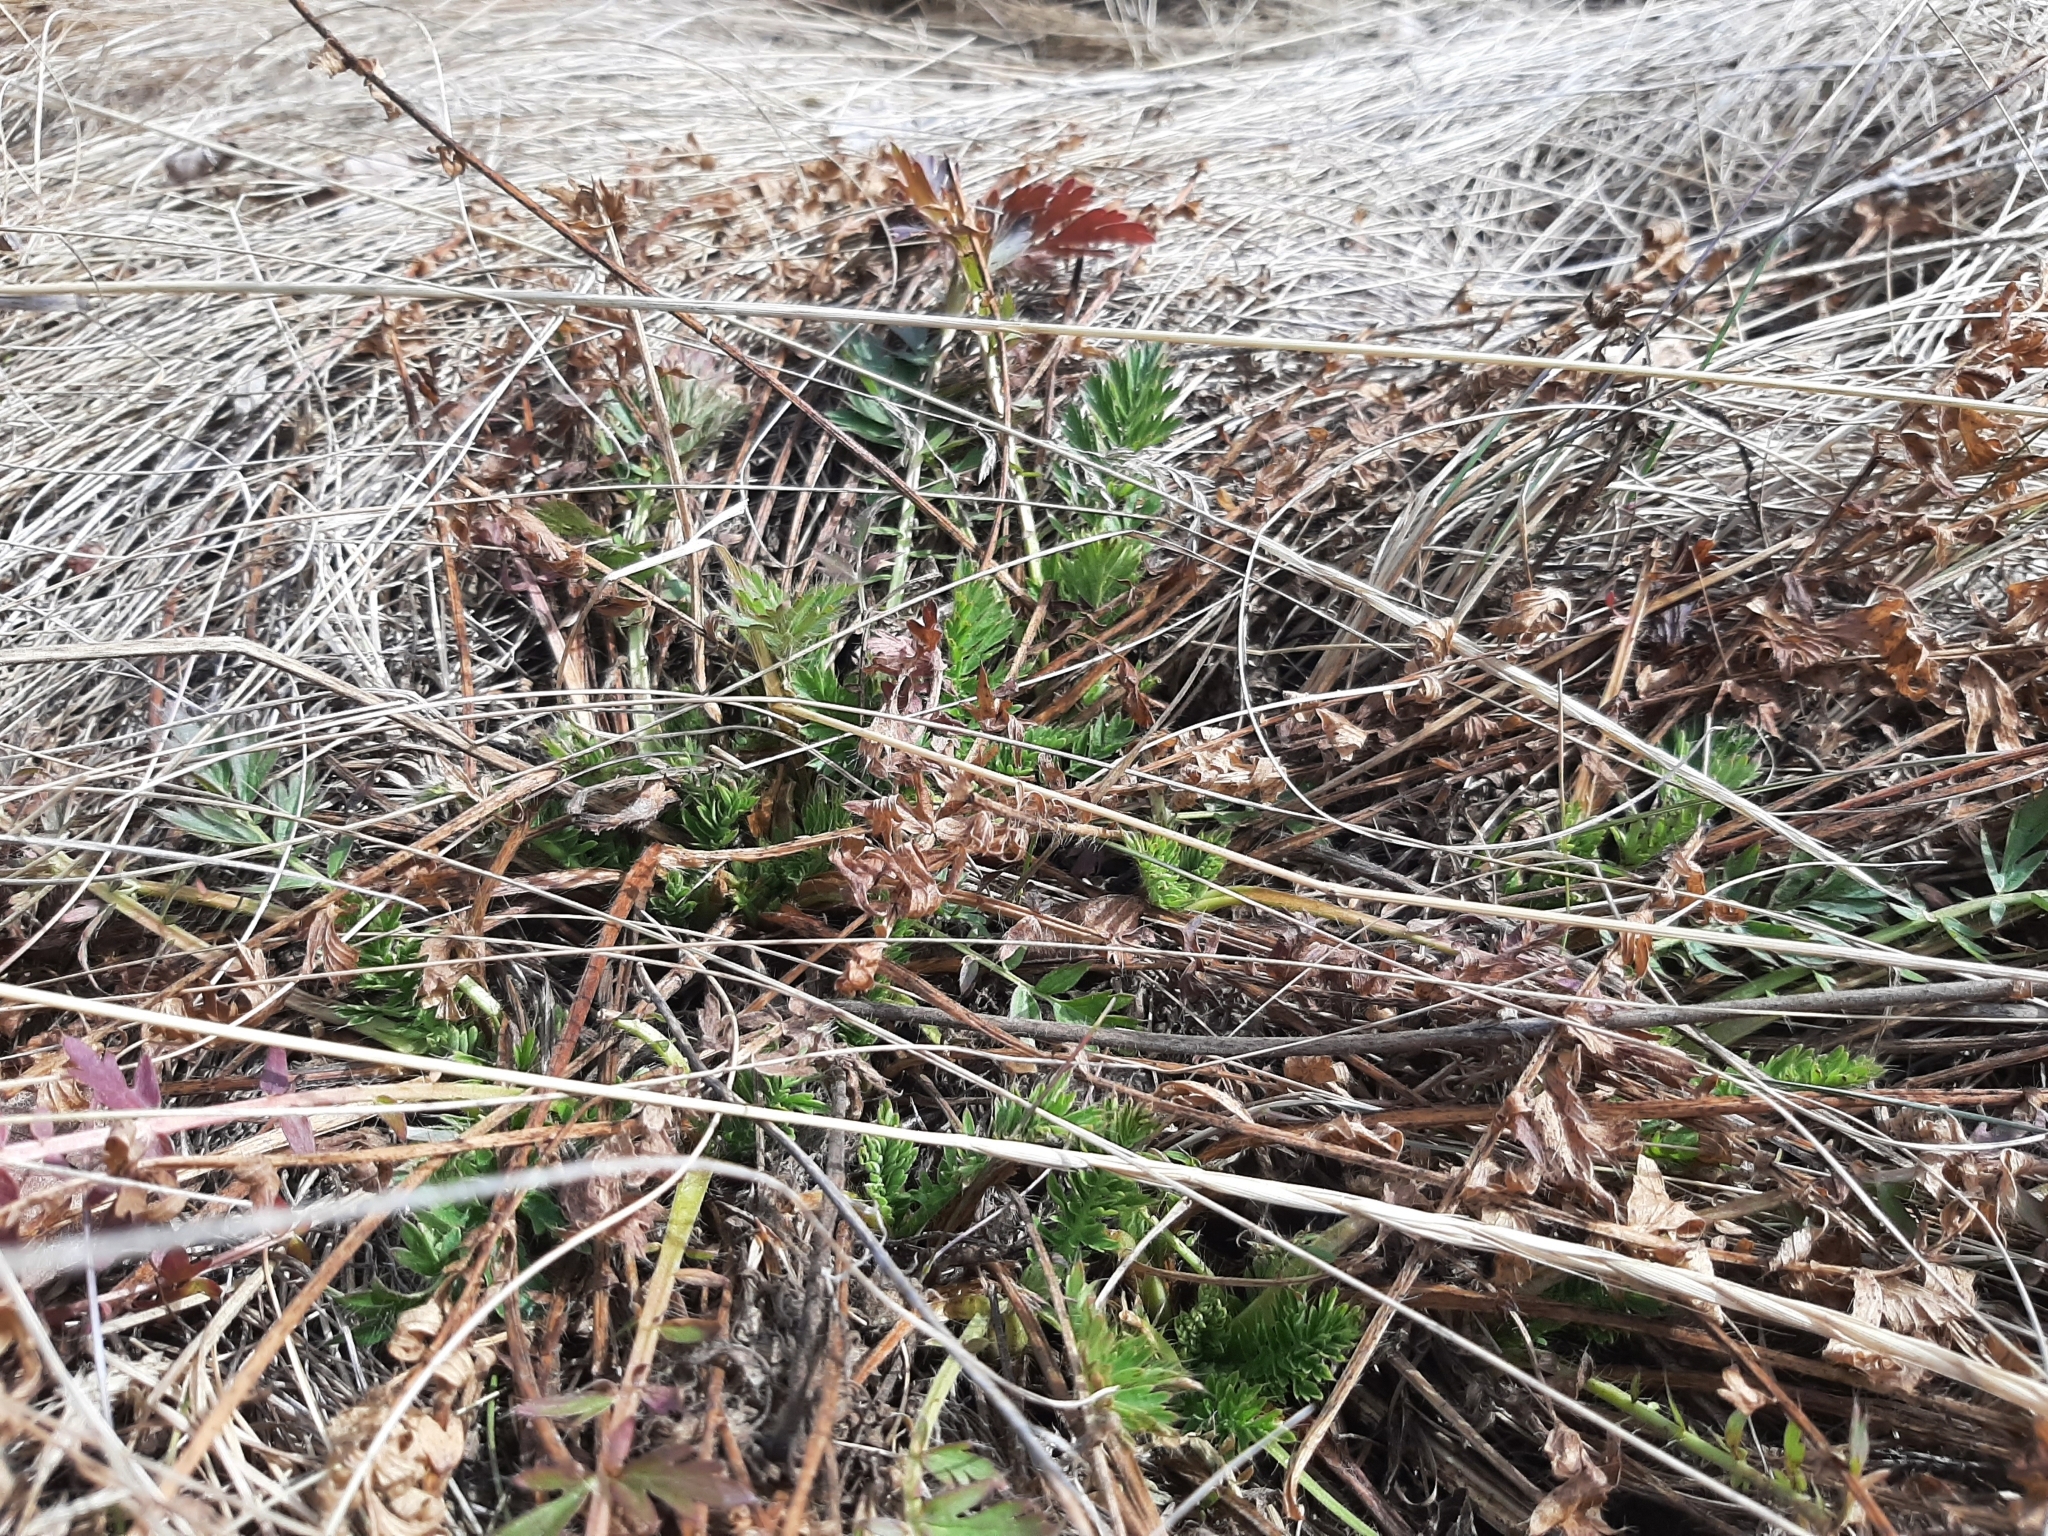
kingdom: Plantae
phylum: Tracheophyta
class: Magnoliopsida
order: Rosales
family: Rosaceae
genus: Geum
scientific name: Geum triflorum
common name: Old man's whiskers
